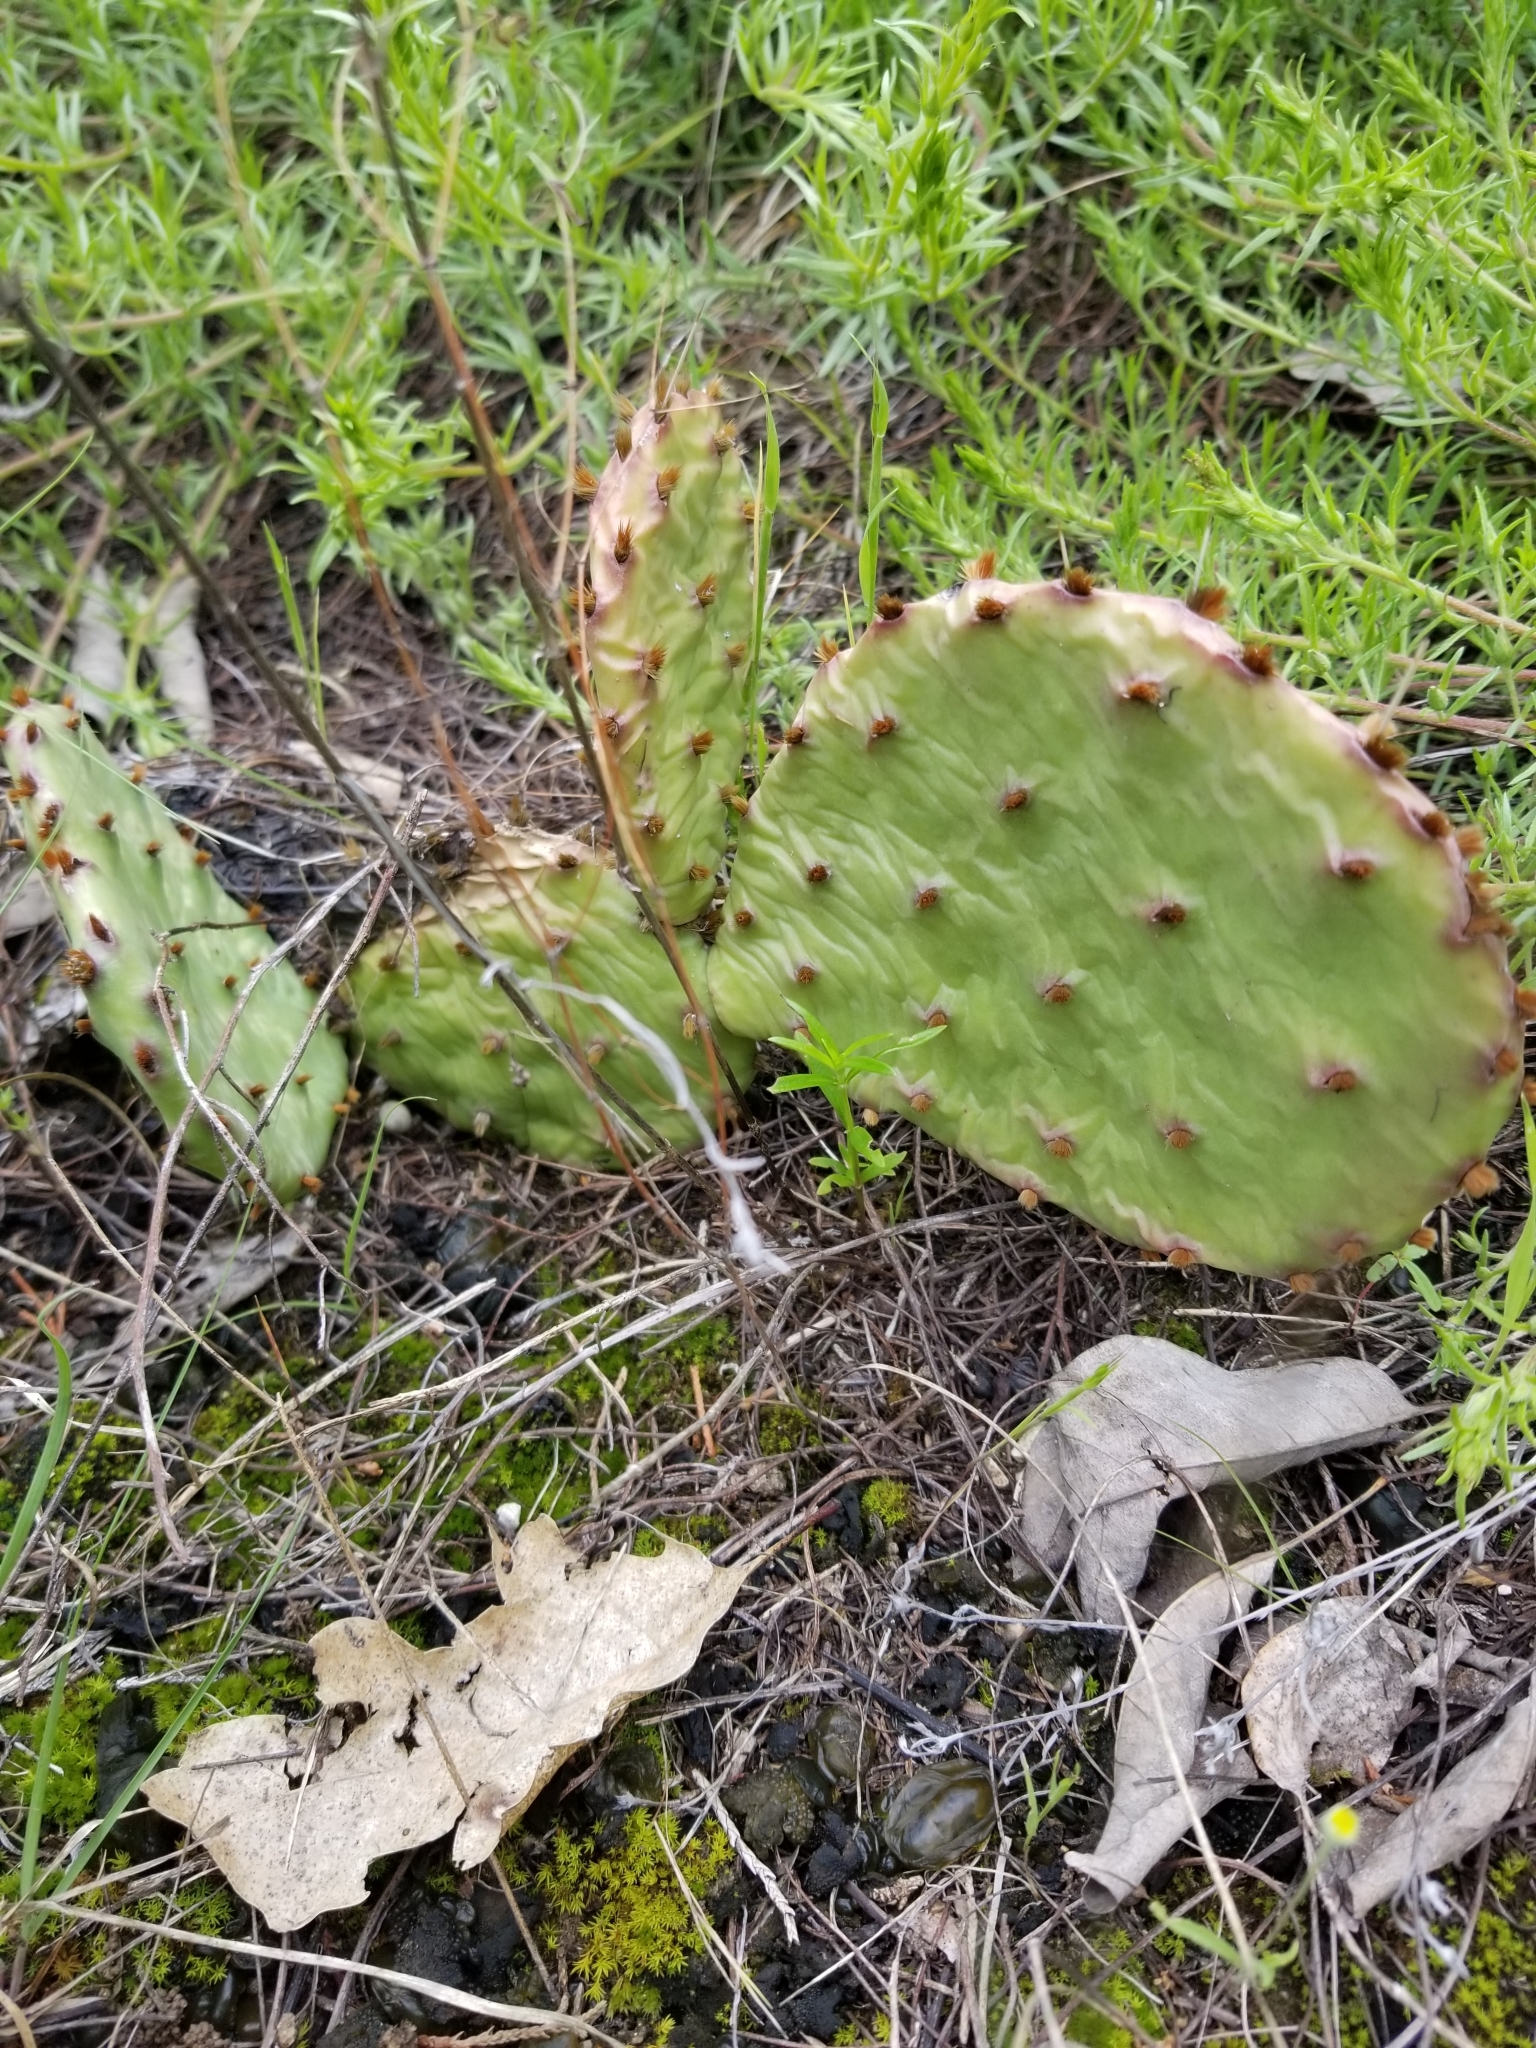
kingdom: Plantae
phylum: Tracheophyta
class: Magnoliopsida
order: Caryophyllales
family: Cactaceae
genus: Opuntia
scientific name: Opuntia macrorhiza
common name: Grassland pricklypear
